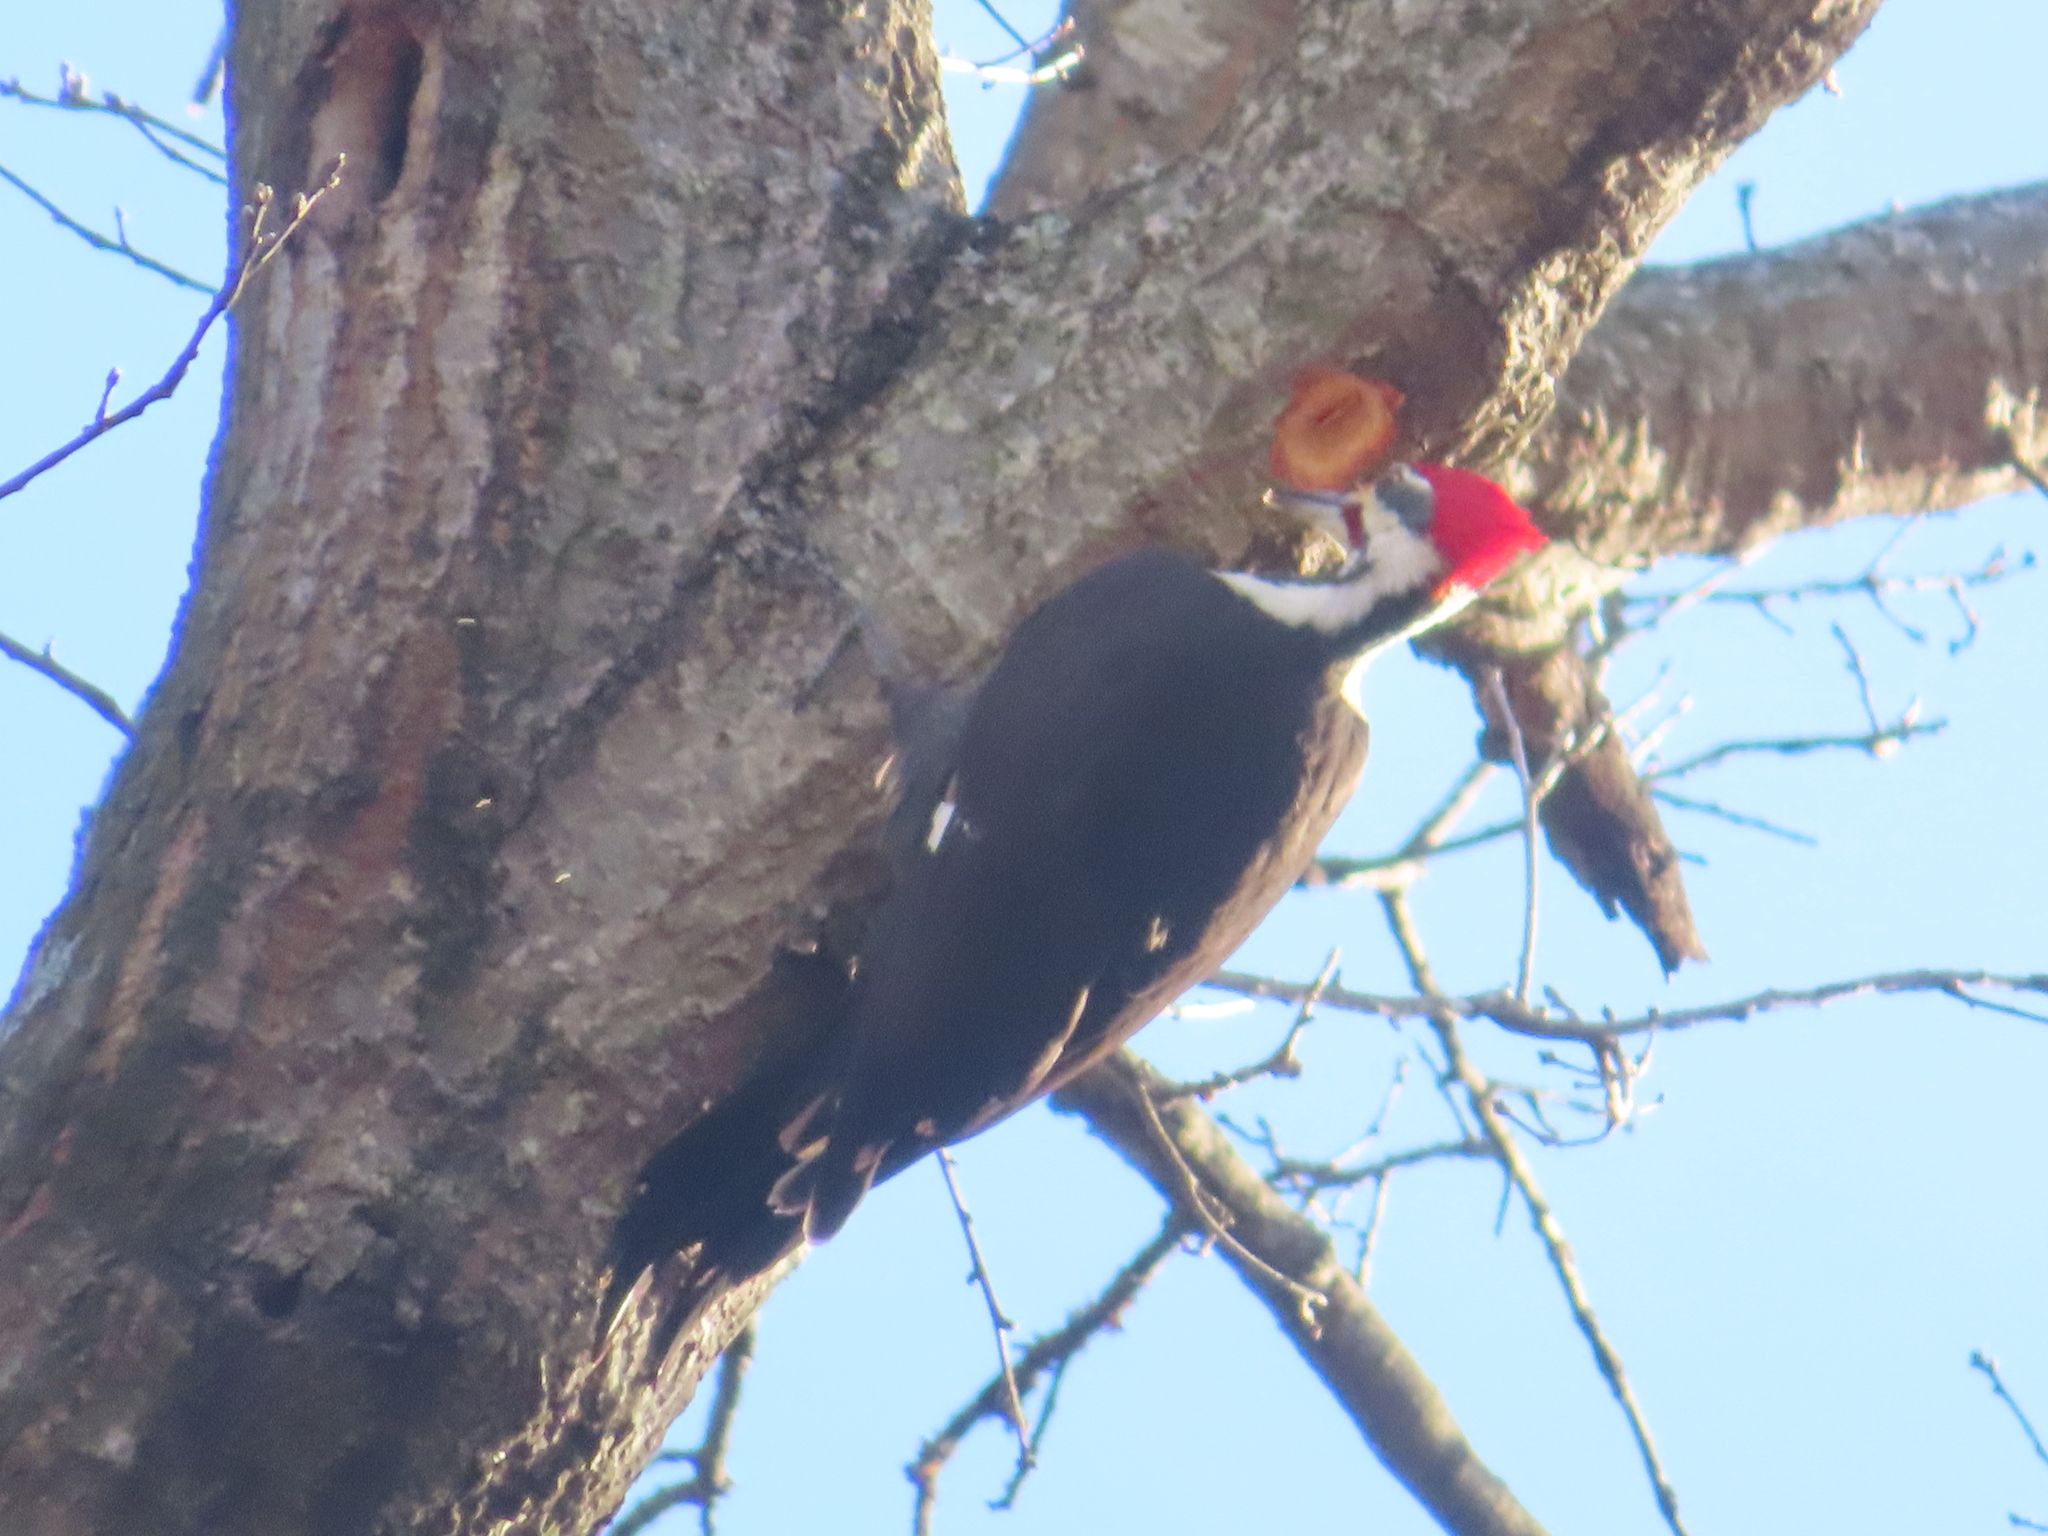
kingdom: Animalia
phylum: Chordata
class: Aves
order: Piciformes
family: Picidae
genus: Dryocopus
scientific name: Dryocopus pileatus
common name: Pileated woodpecker
